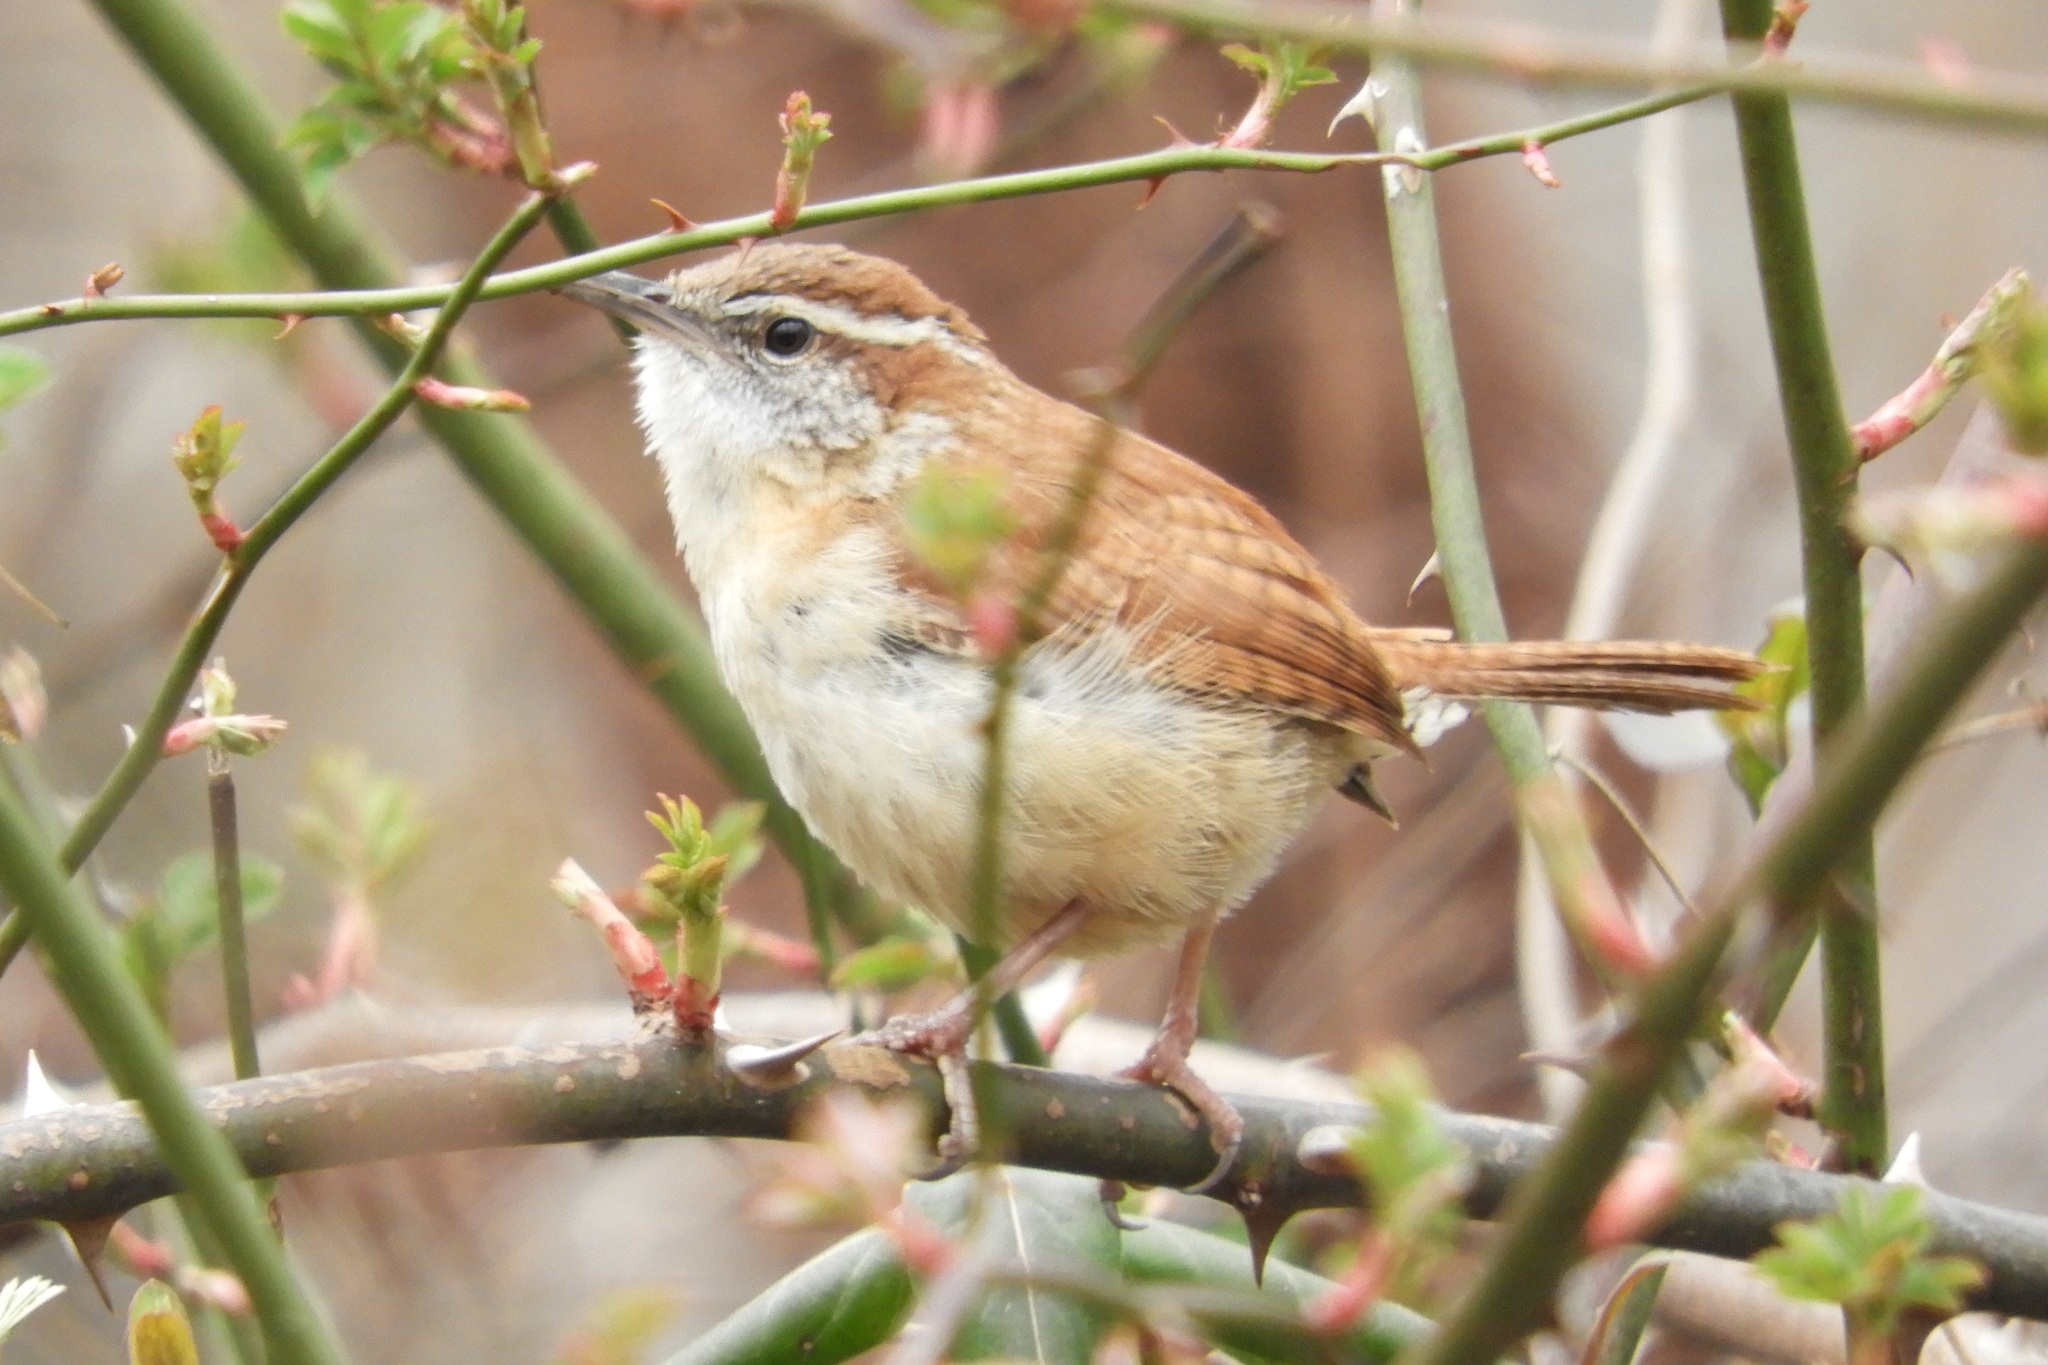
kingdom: Animalia
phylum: Chordata
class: Aves
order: Passeriformes
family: Troglodytidae
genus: Thryothorus
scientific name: Thryothorus ludovicianus
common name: Carolina wren
